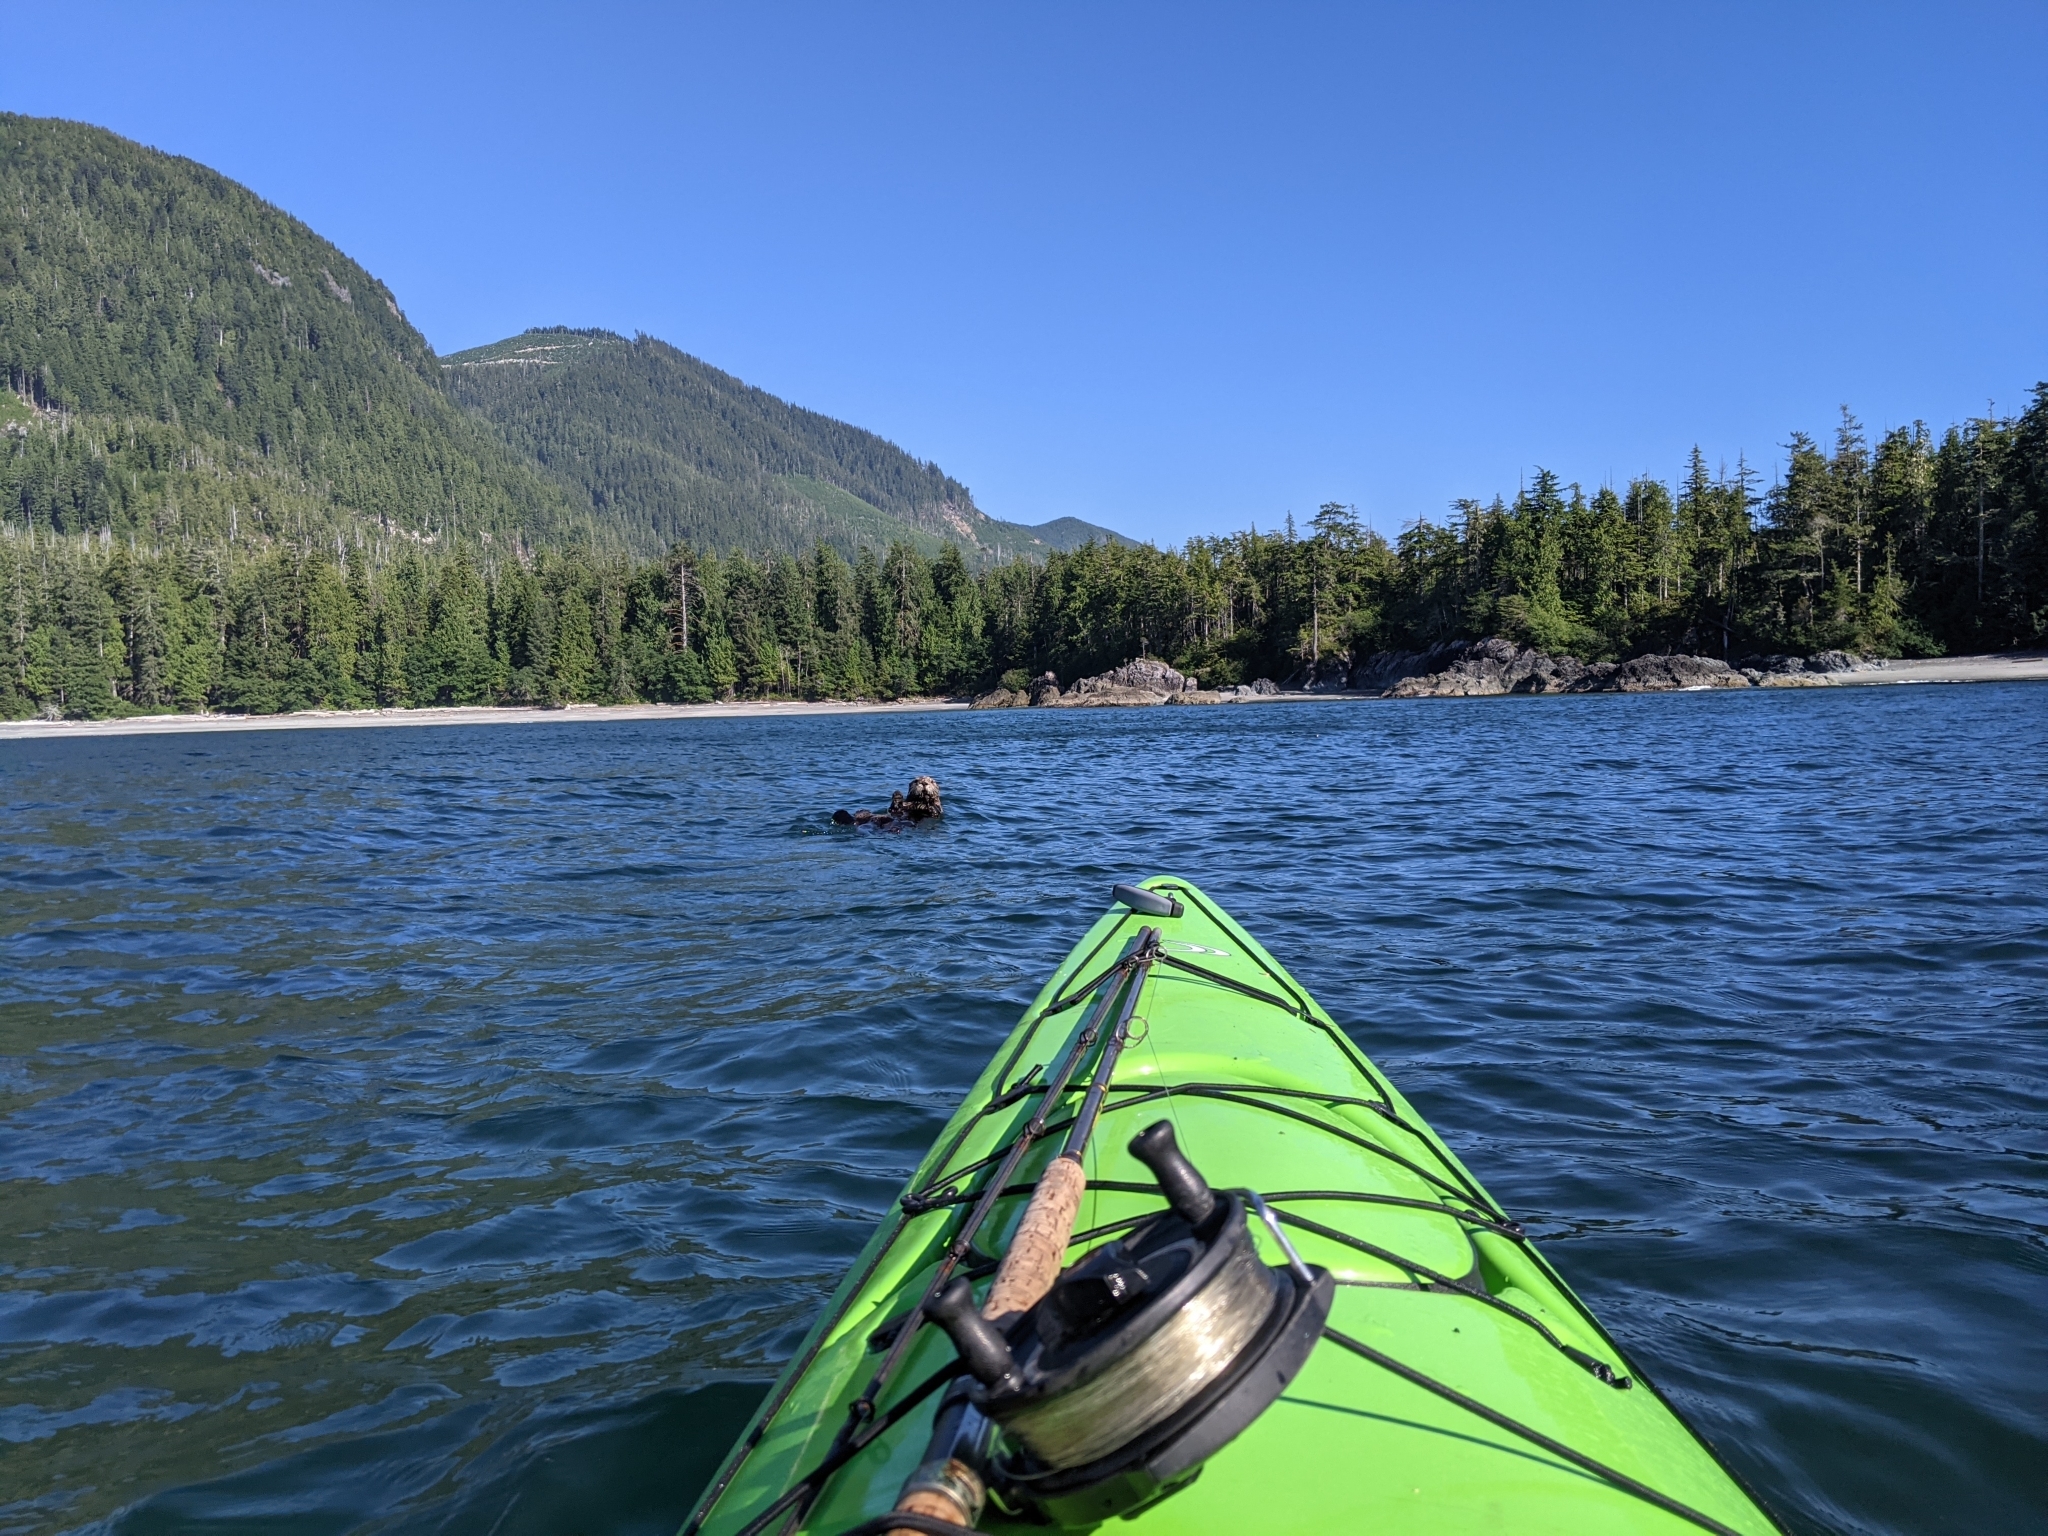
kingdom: Animalia
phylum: Chordata
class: Mammalia
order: Carnivora
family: Mustelidae
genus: Enhydra
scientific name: Enhydra lutris
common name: Sea otter
